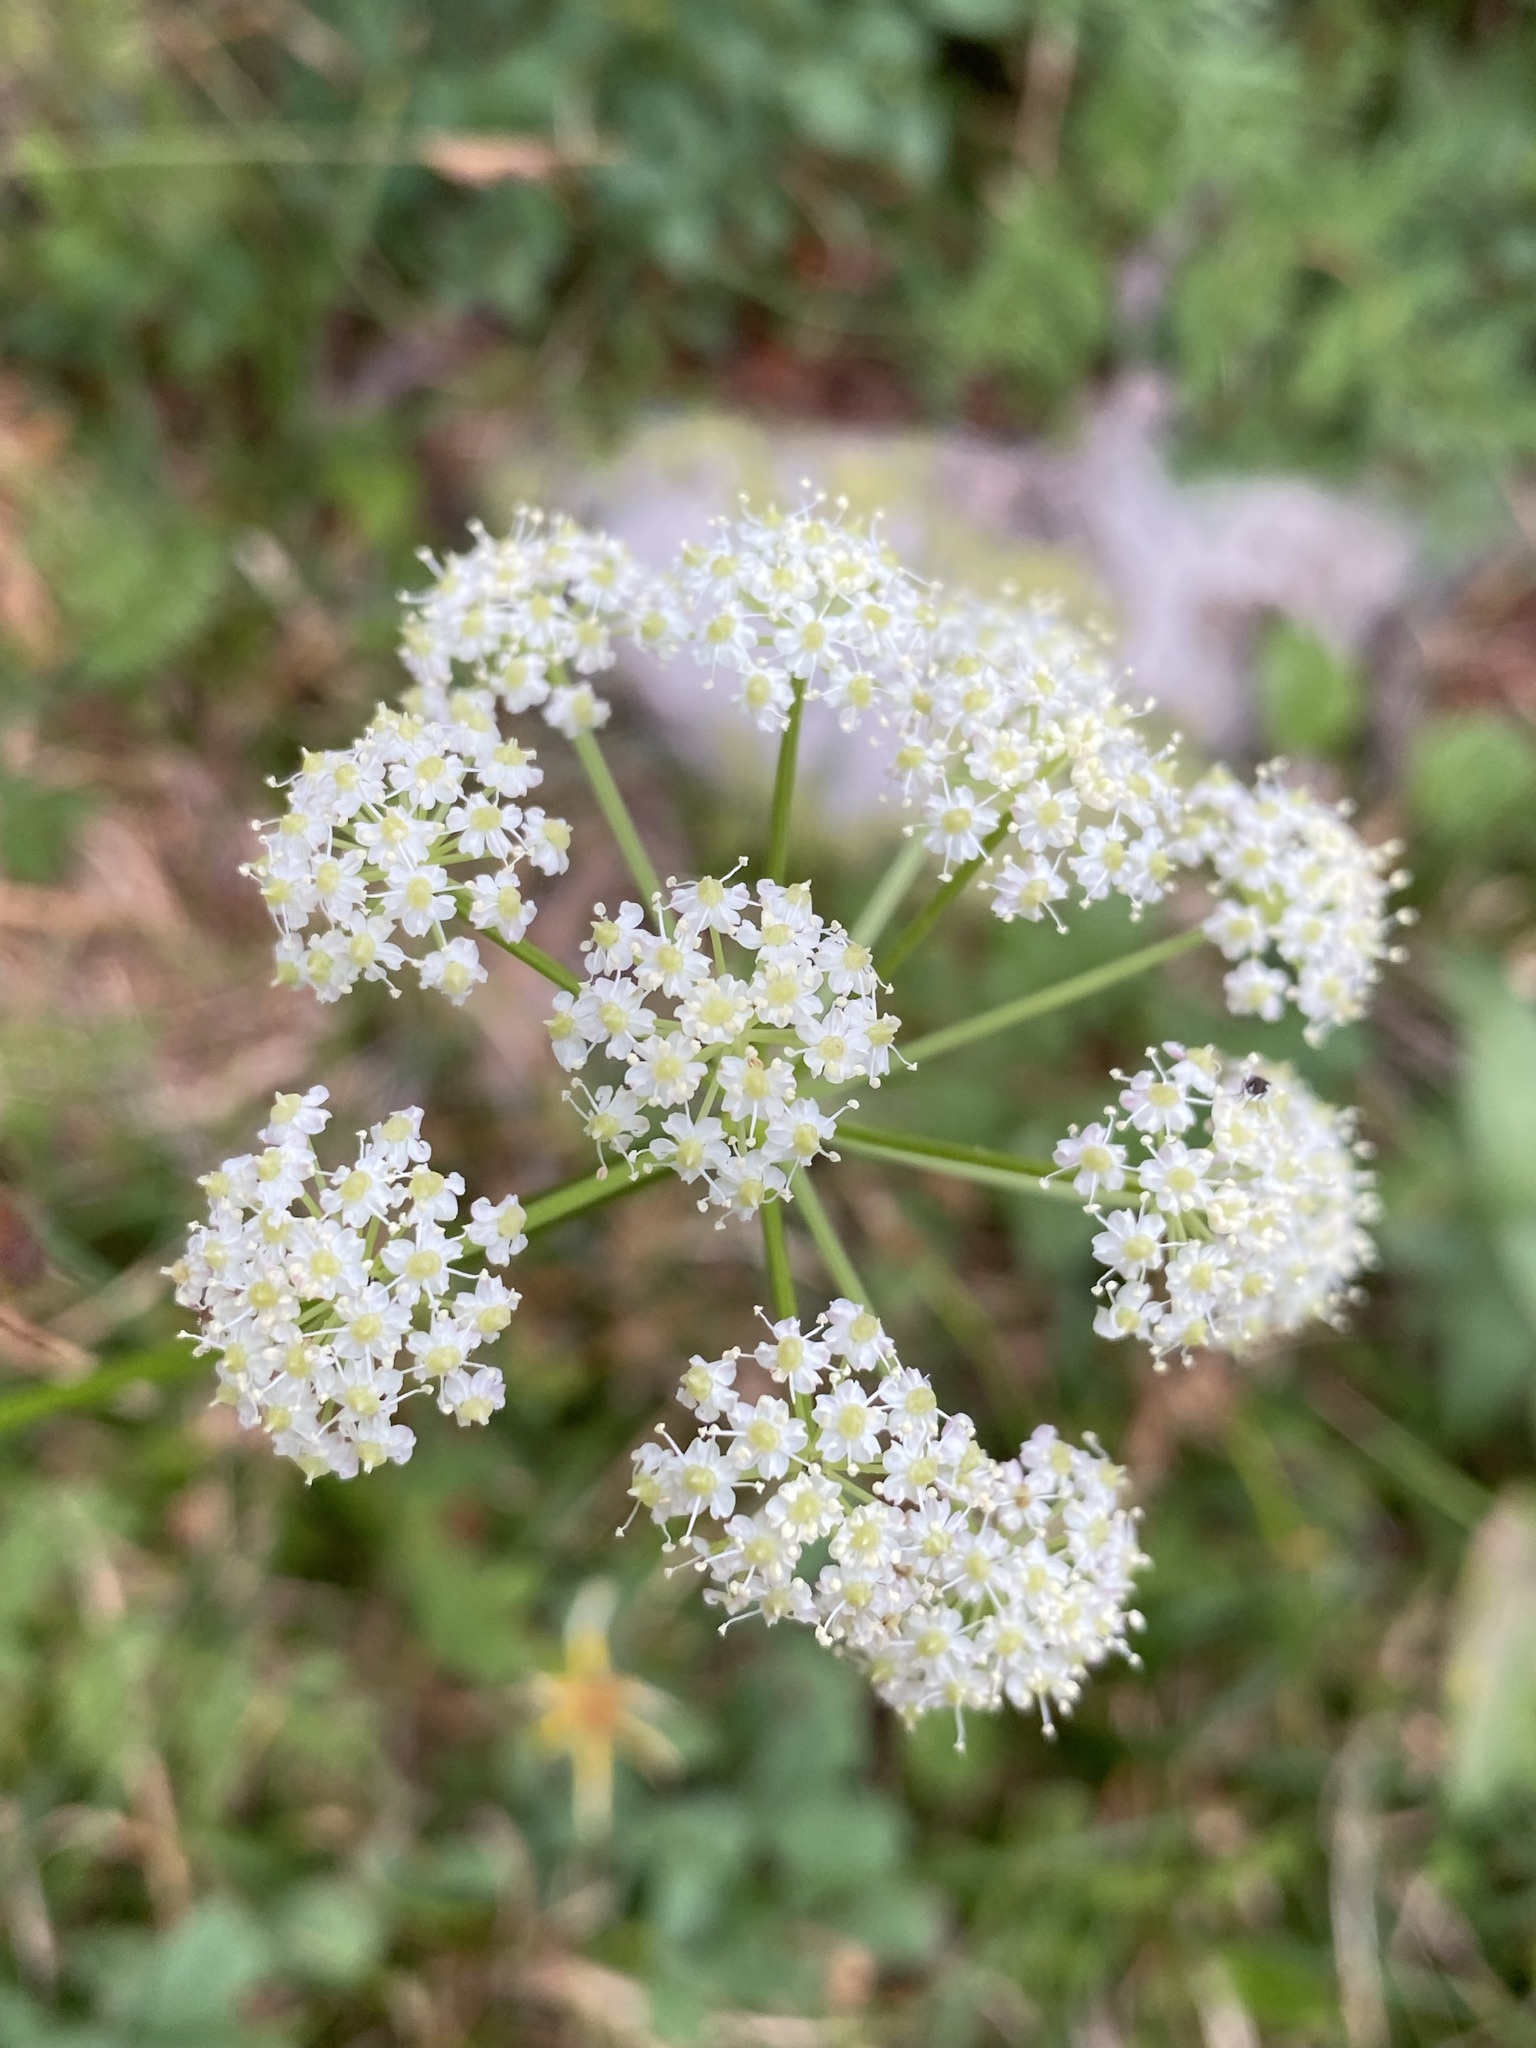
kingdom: Plantae
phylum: Tracheophyta
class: Magnoliopsida
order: Apiales
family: Apiaceae
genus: Ligusticum
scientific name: Ligusticum tenuifolium
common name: Idaho licorice-root
